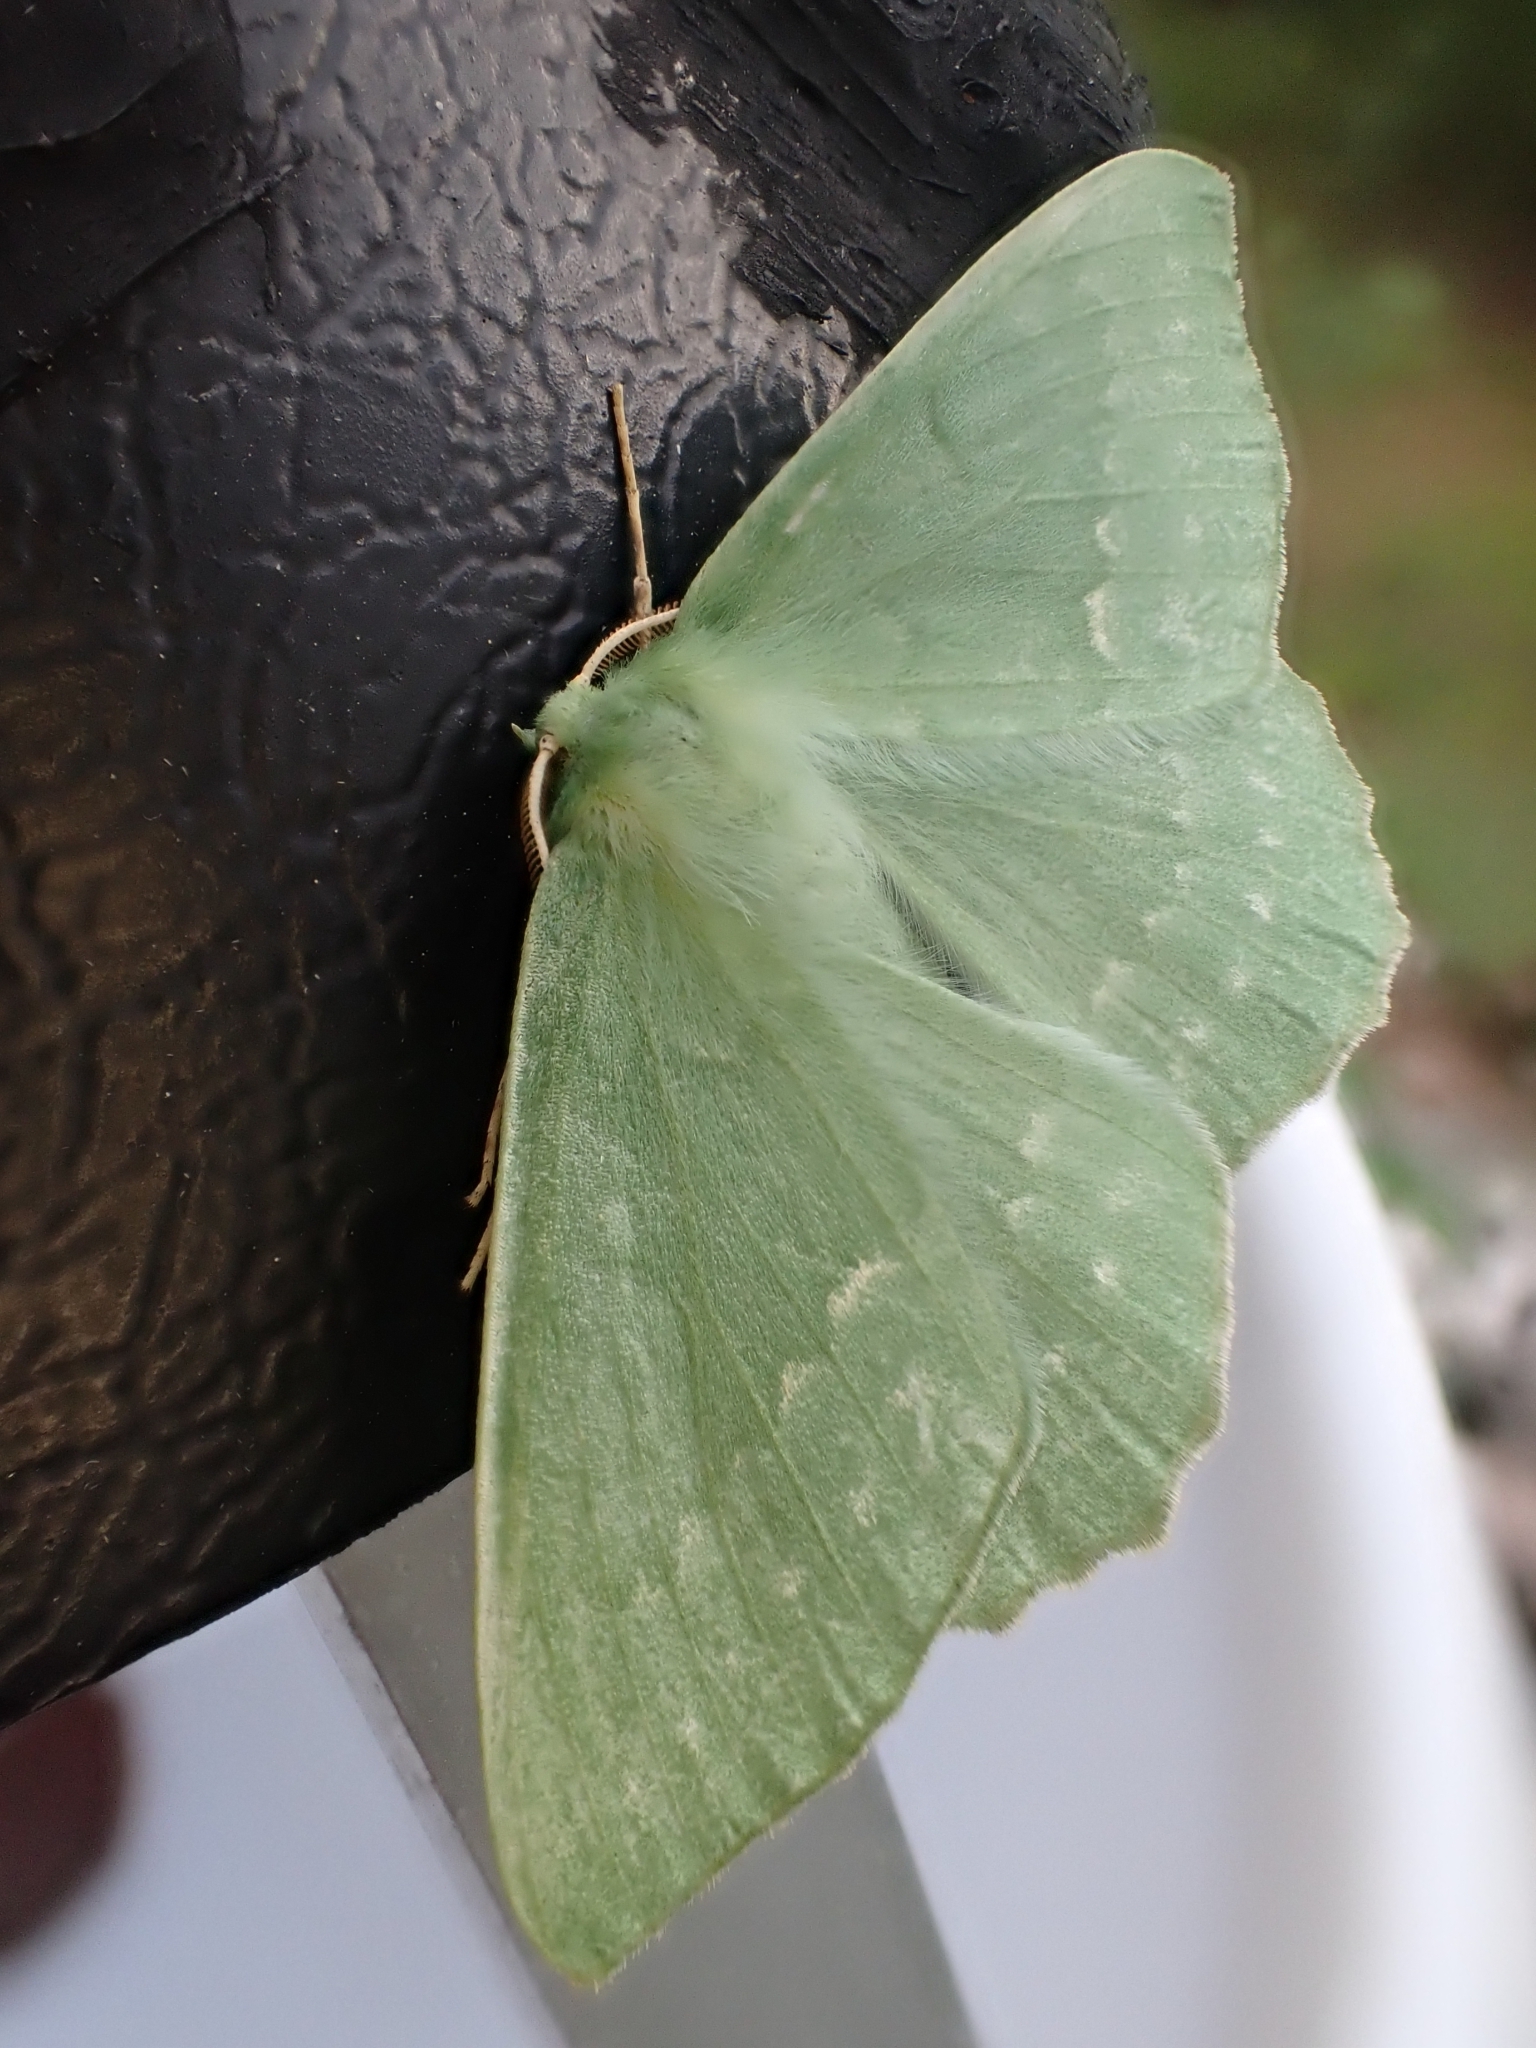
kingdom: Animalia
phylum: Arthropoda
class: Insecta
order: Lepidoptera
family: Geometridae
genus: Geometra
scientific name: Geometra papilionaria
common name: Large emerald
